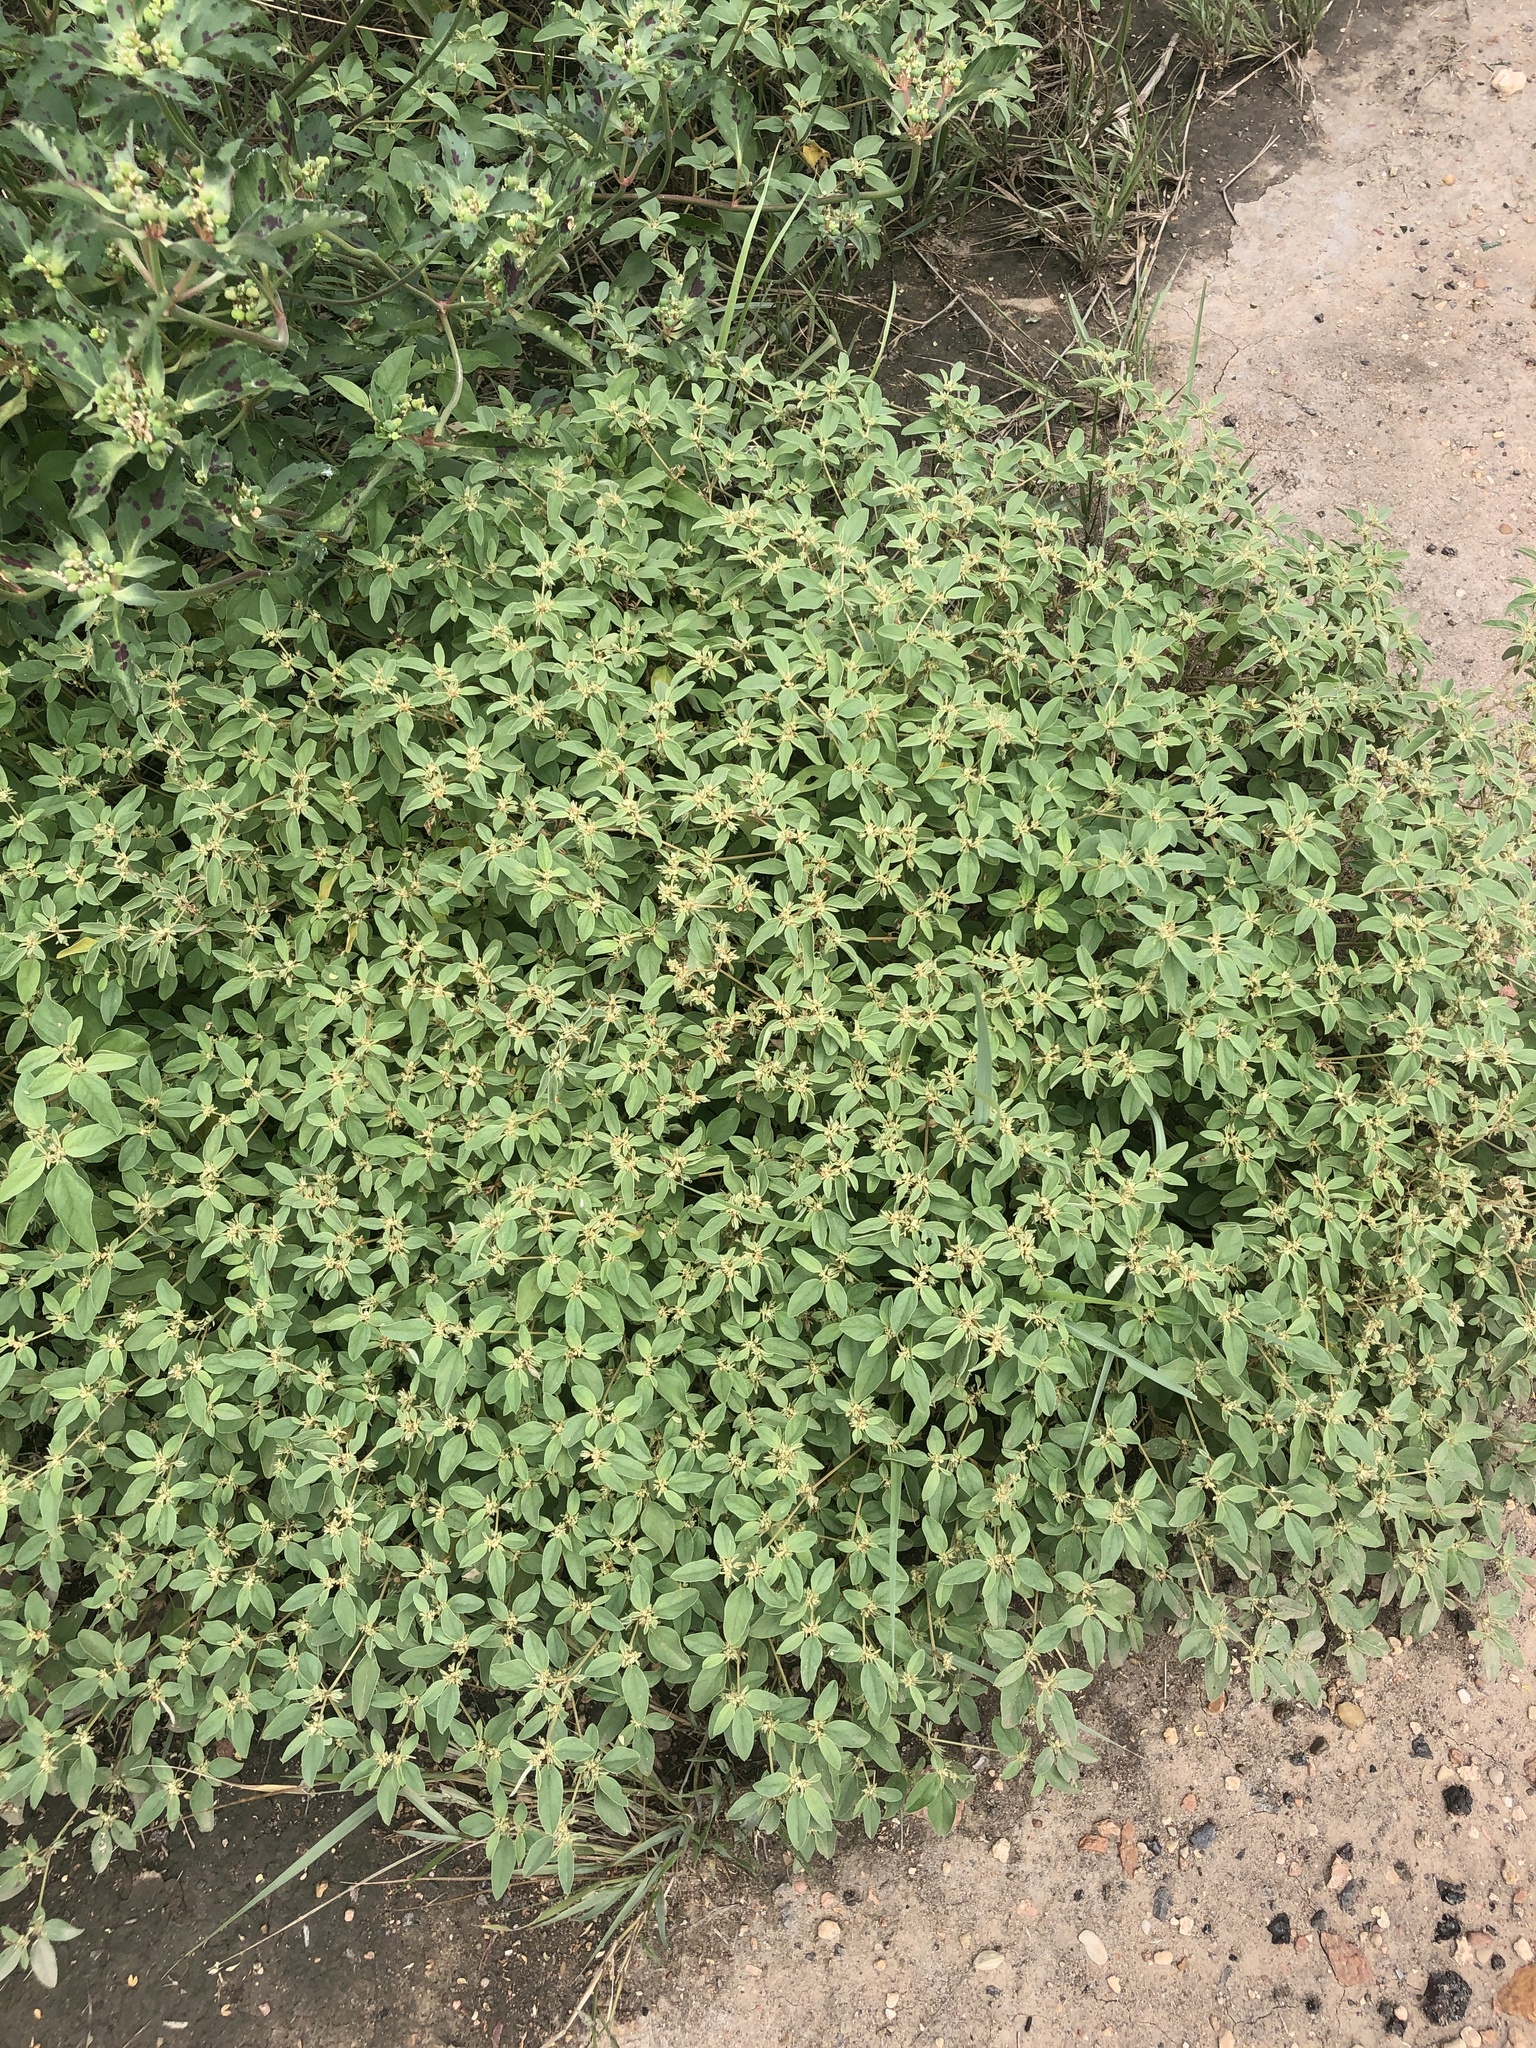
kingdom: Plantae
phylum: Tracheophyta
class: Magnoliopsida
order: Malpighiales
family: Euphorbiaceae
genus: Croton
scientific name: Croton monanthogynus
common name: One-seed croton
